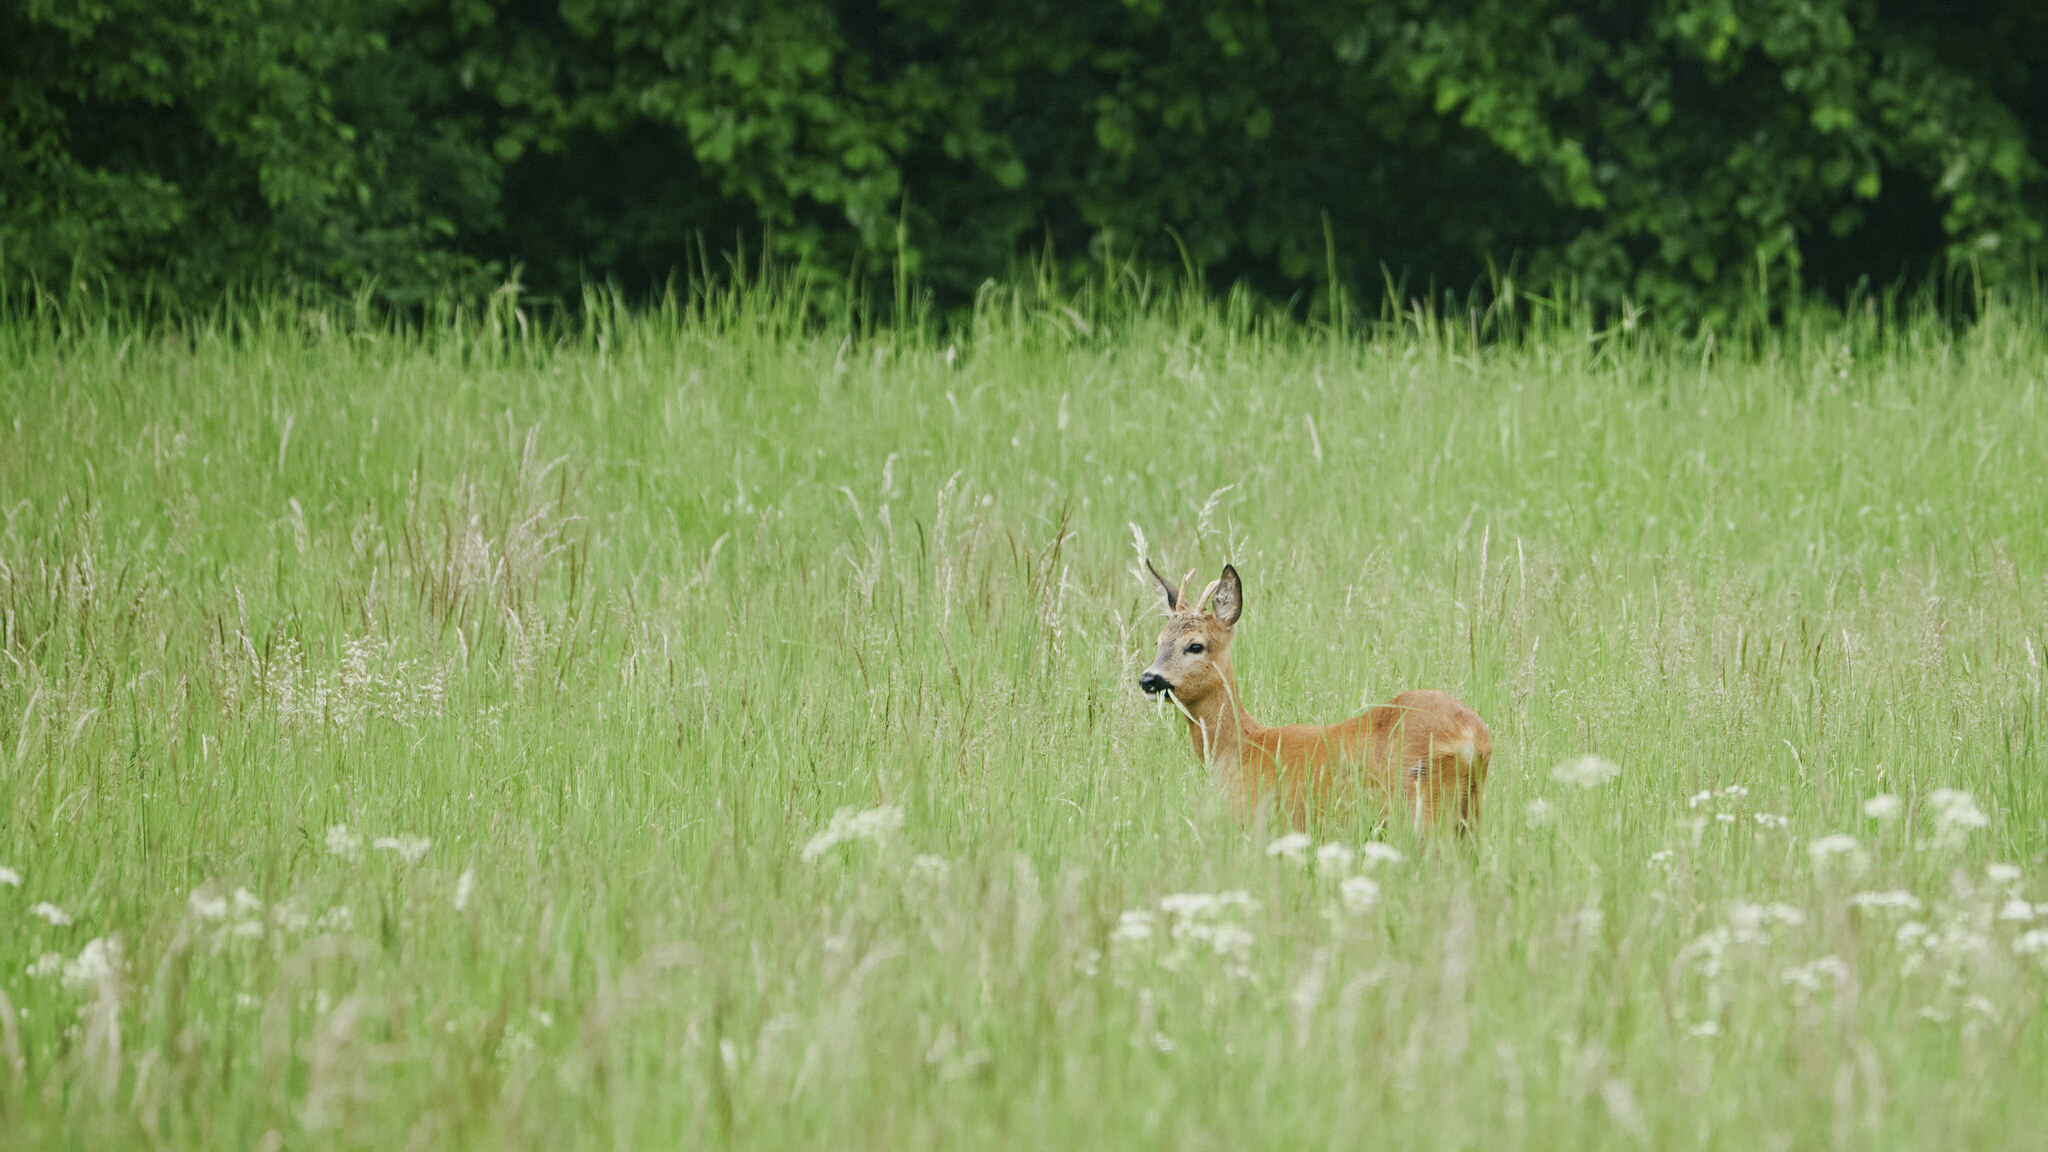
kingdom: Animalia
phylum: Chordata
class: Mammalia
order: Artiodactyla
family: Cervidae
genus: Capreolus
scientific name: Capreolus capreolus
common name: Western roe deer
